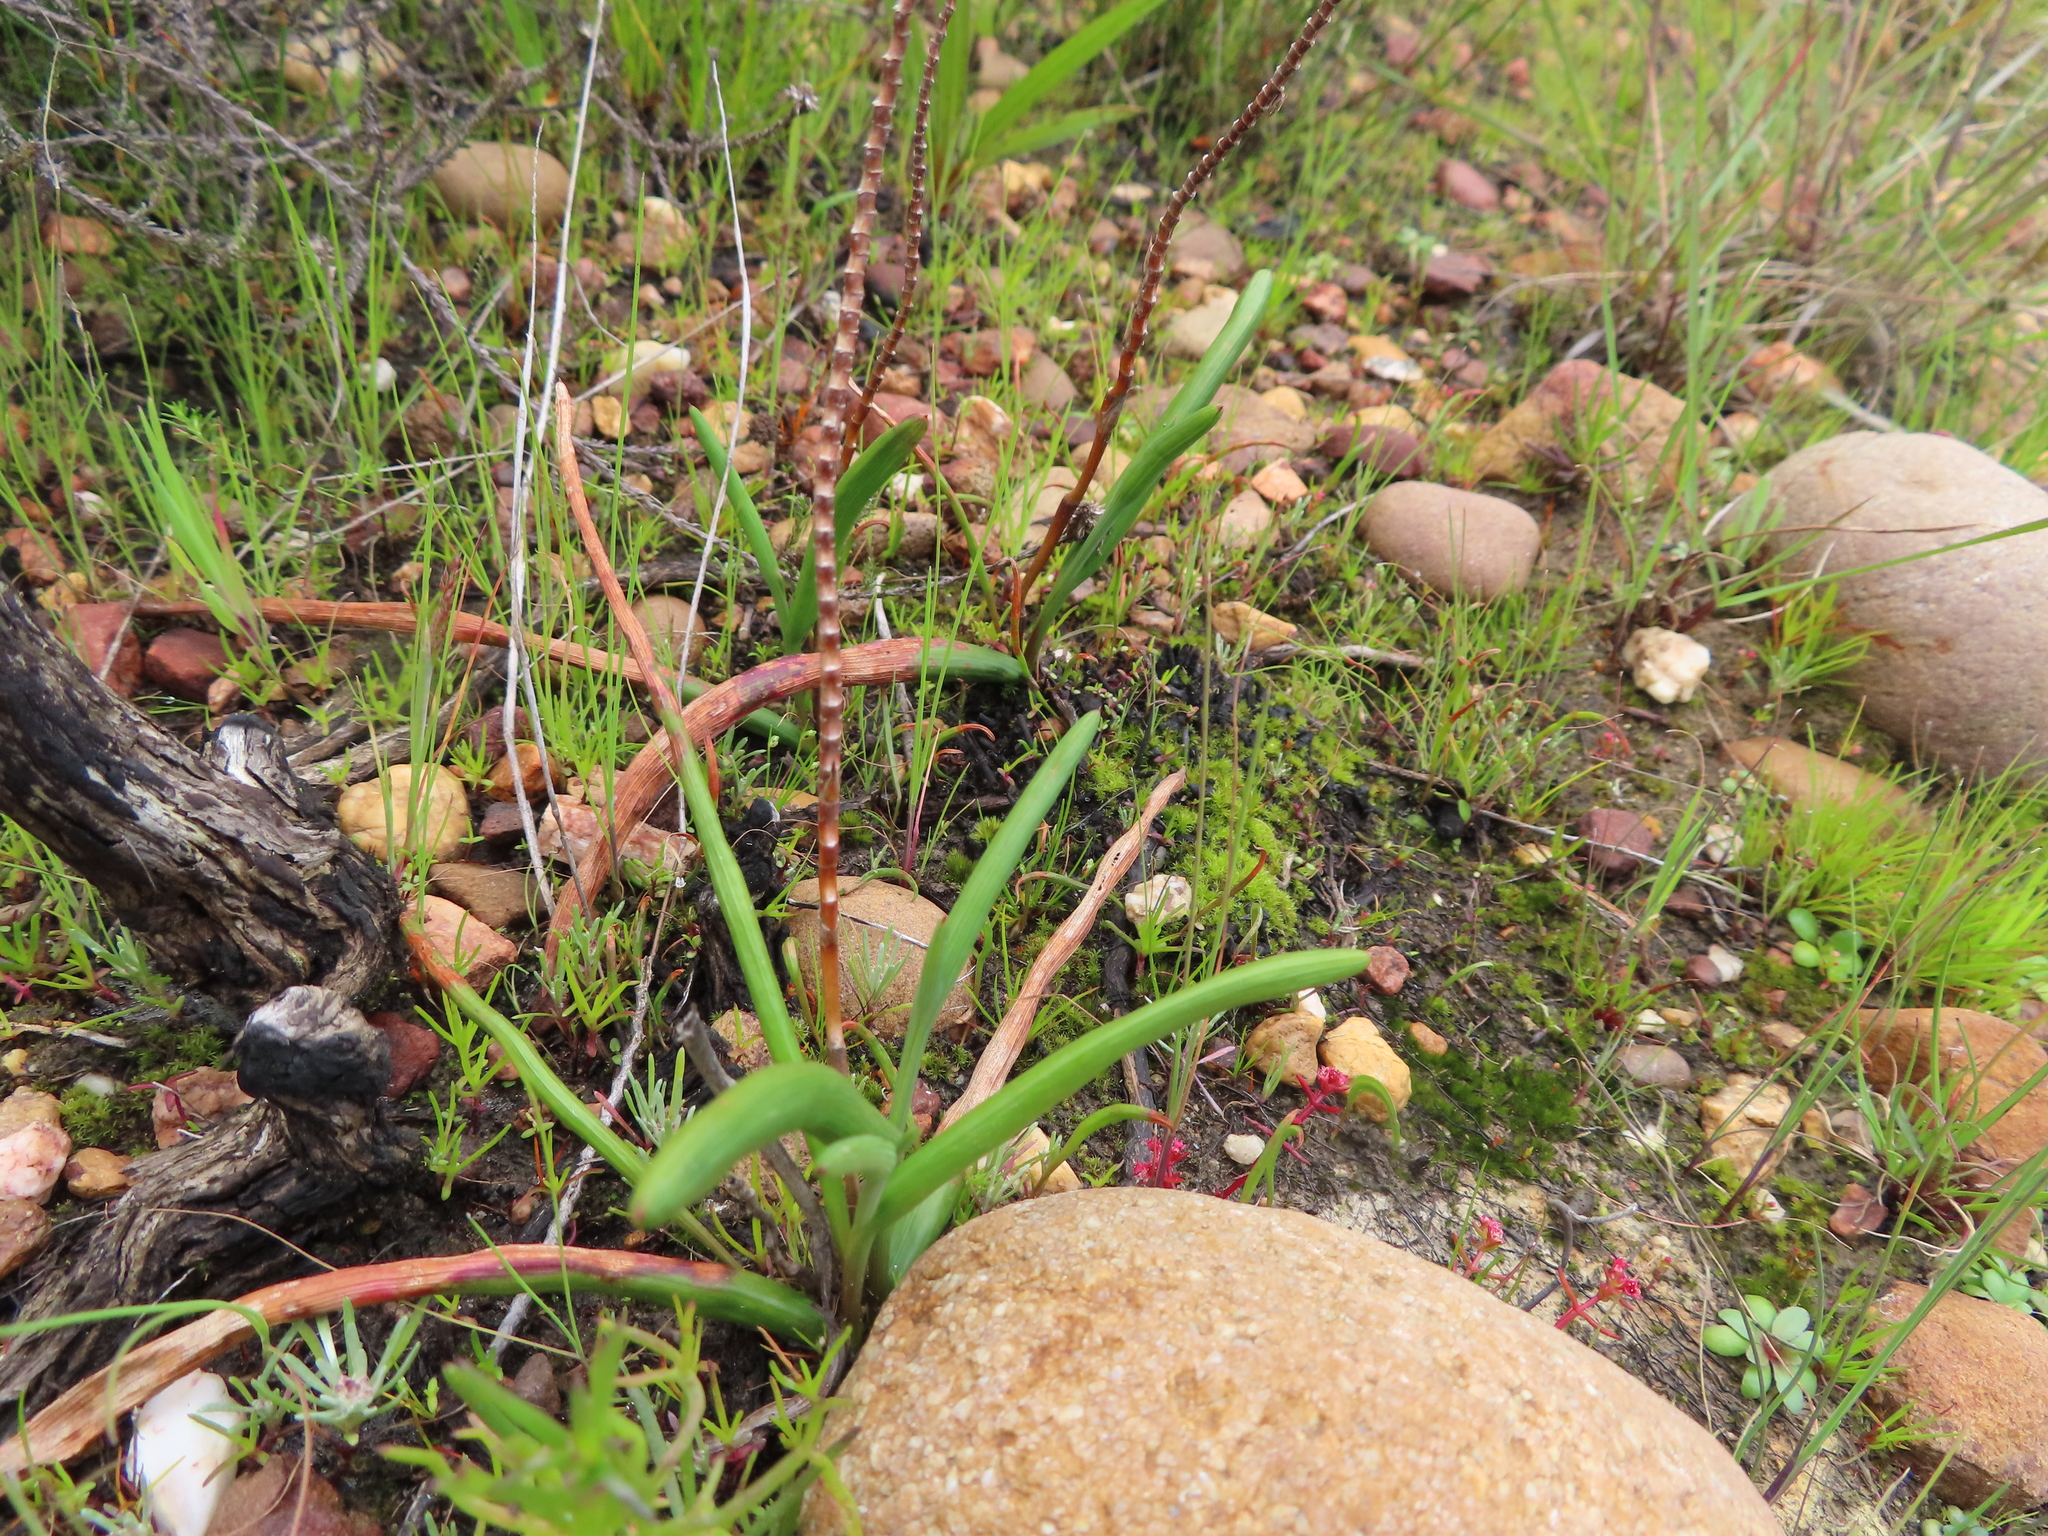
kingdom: Plantae
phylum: Tracheophyta
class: Liliopsida
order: Asparagales
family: Iridaceae
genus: Micranthus
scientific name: Micranthus tubulosus
